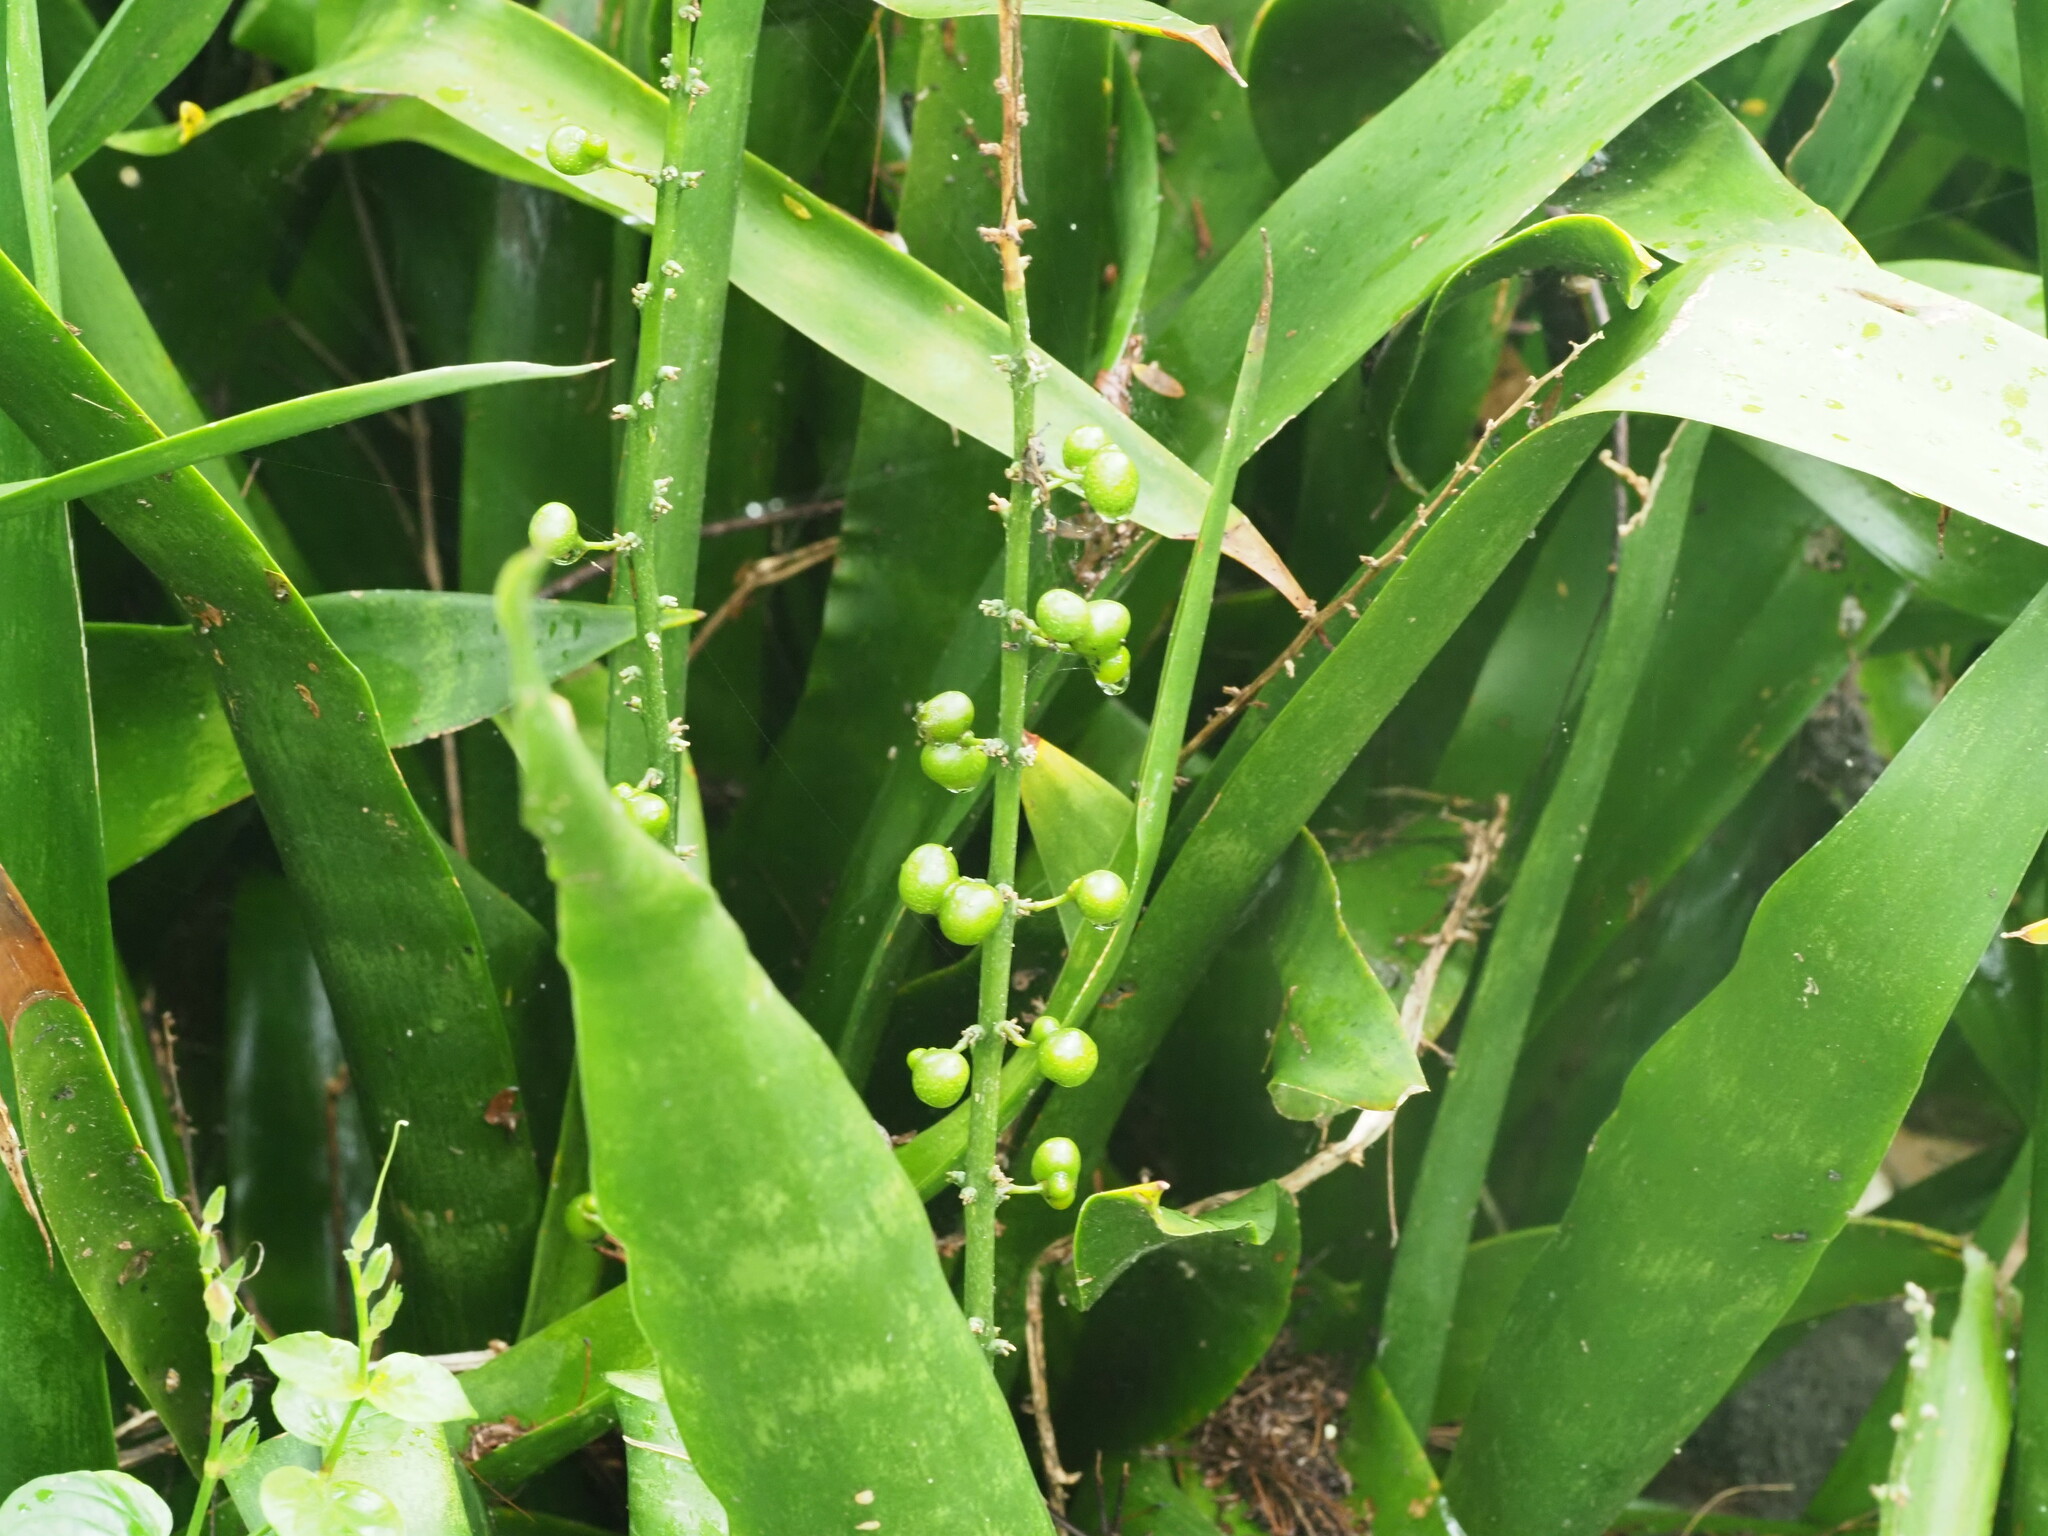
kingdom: Plantae
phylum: Tracheophyta
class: Liliopsida
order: Asparagales
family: Asparagaceae
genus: Dracaena
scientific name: Dracaena trifasciata
